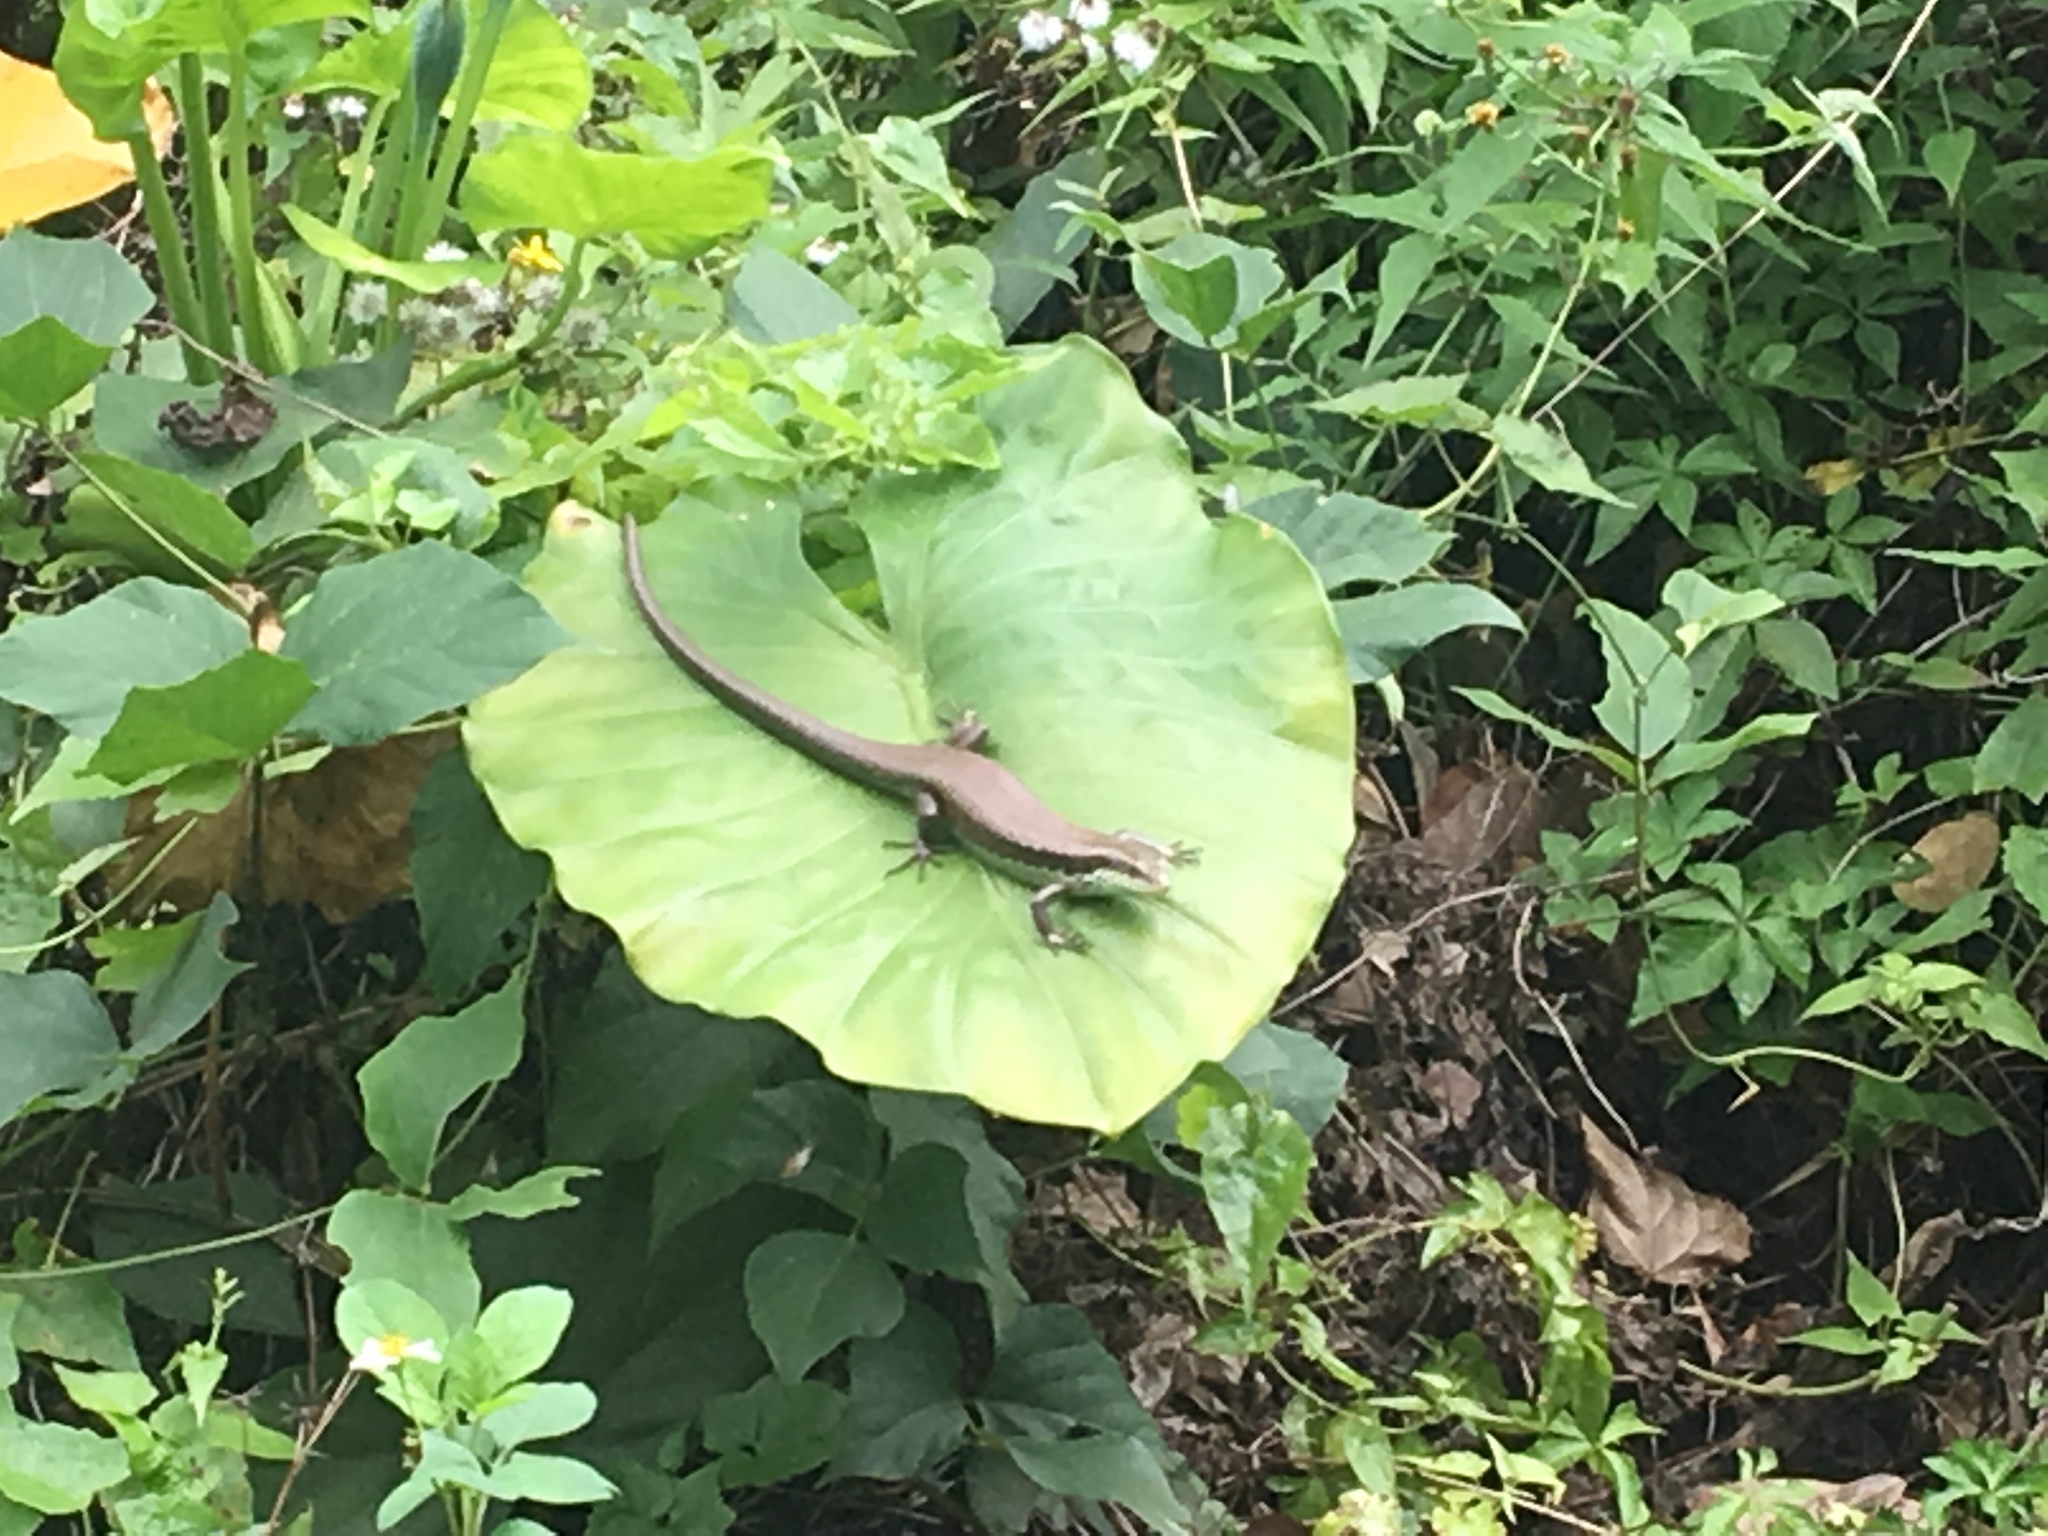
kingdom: Animalia
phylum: Chordata
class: Squamata
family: Scincidae
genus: Eutropis
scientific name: Eutropis longicaudata
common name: Long-tailed sun skink
